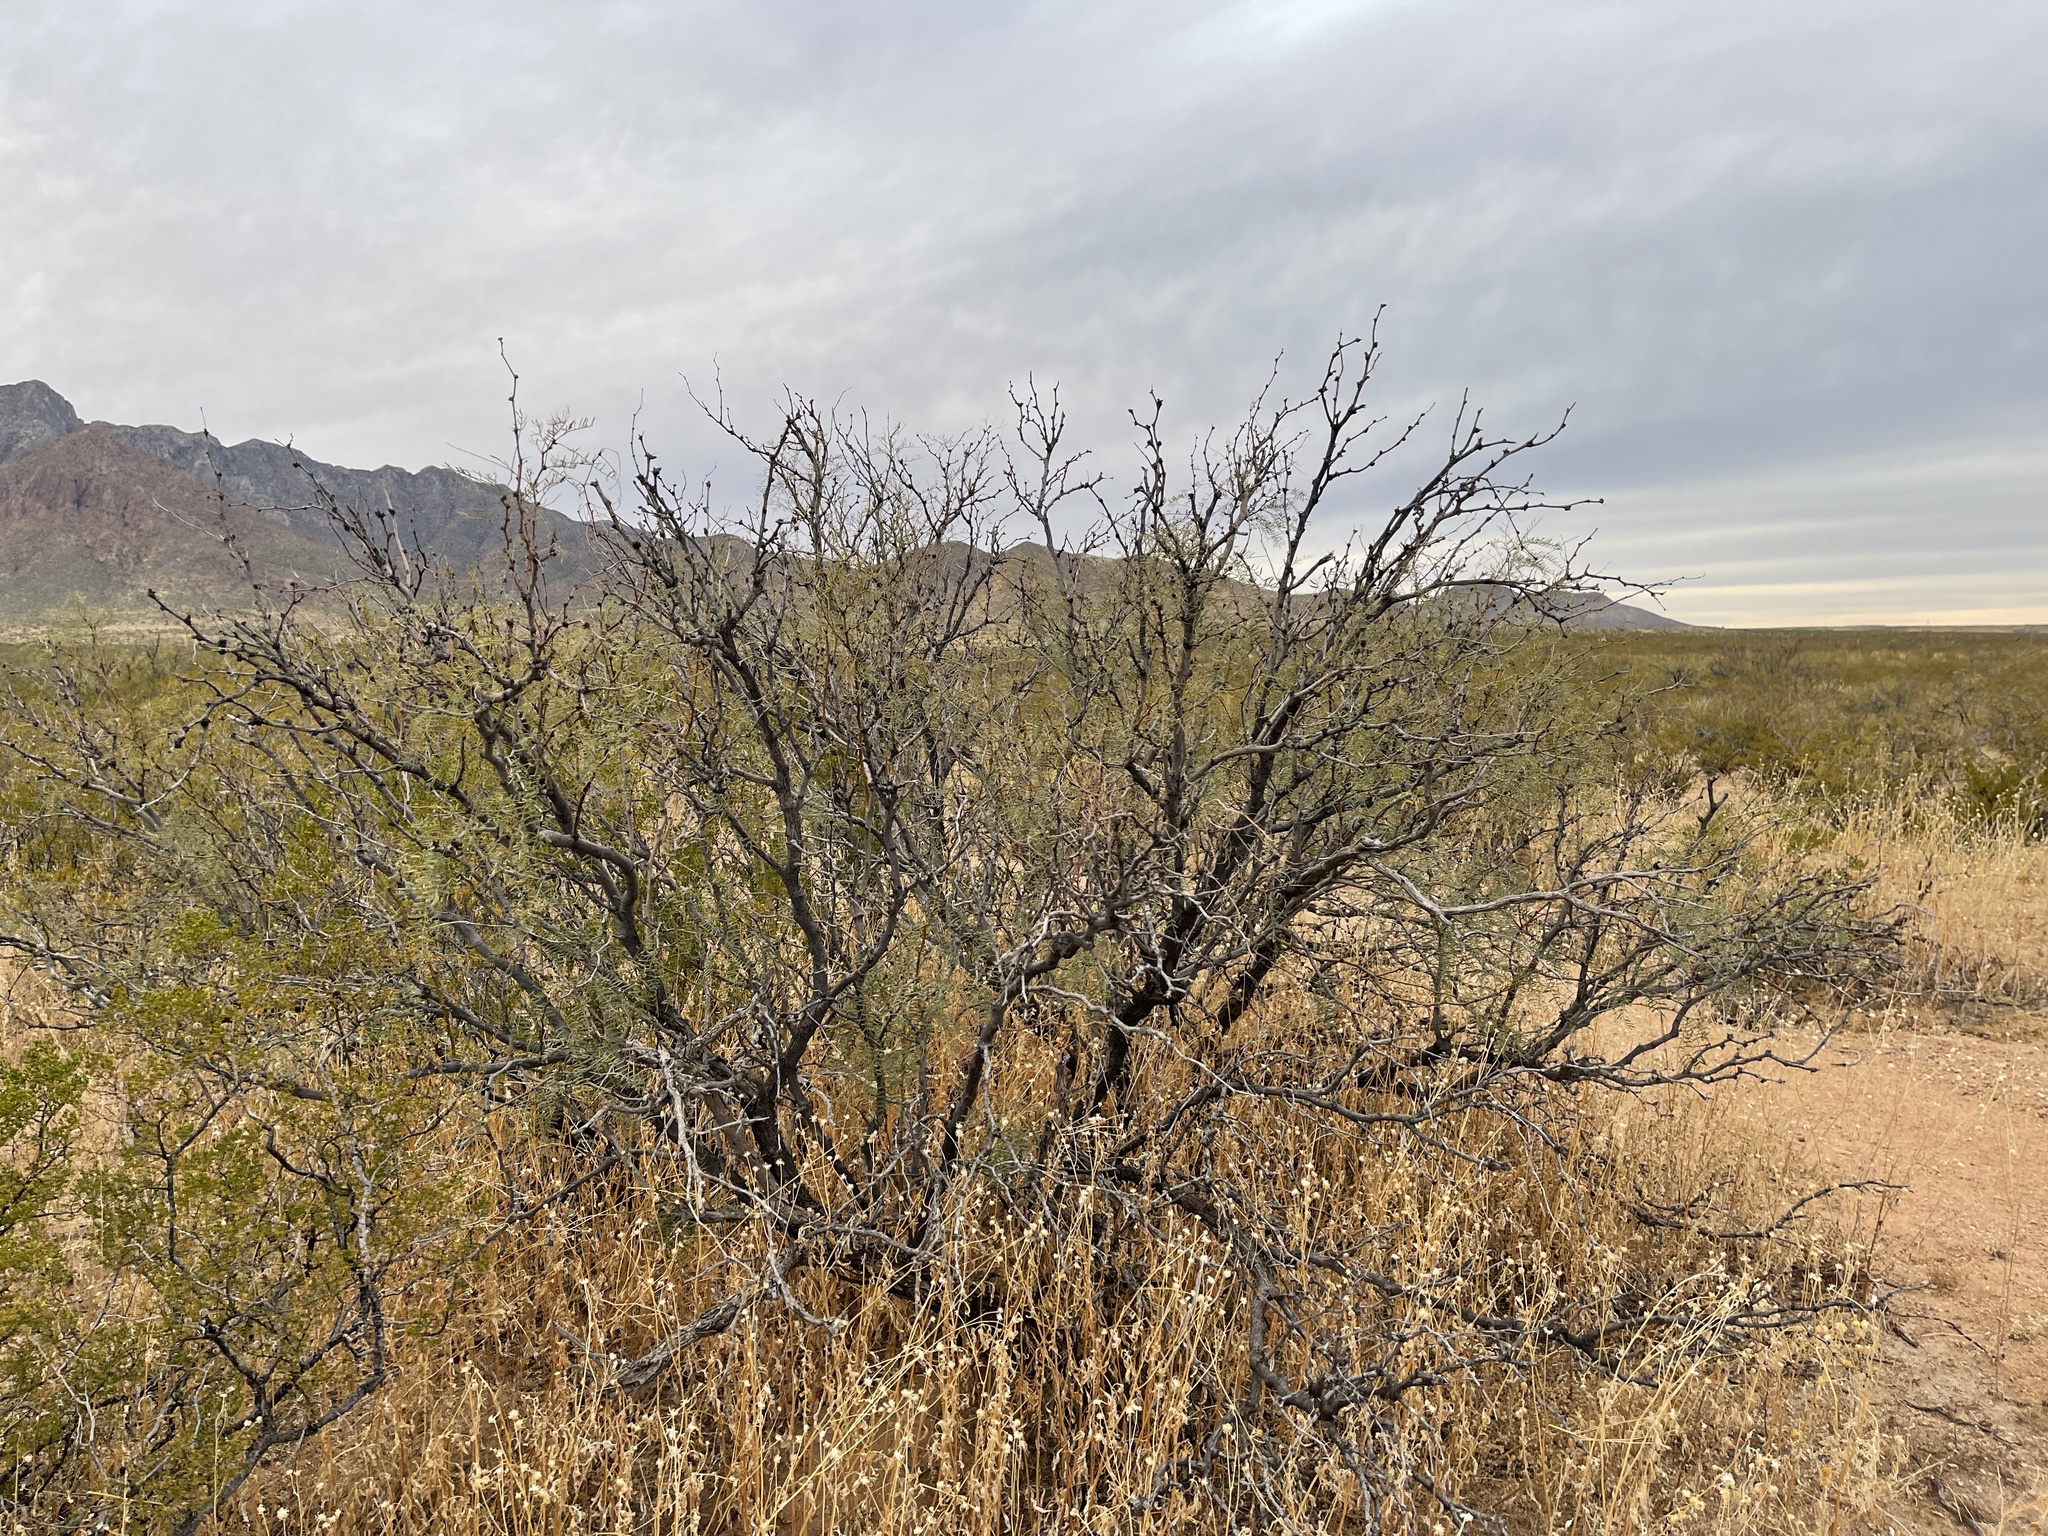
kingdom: Plantae
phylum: Tracheophyta
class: Magnoliopsida
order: Fabales
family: Fabaceae
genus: Prosopis
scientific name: Prosopis glandulosa
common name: Honey mesquite
